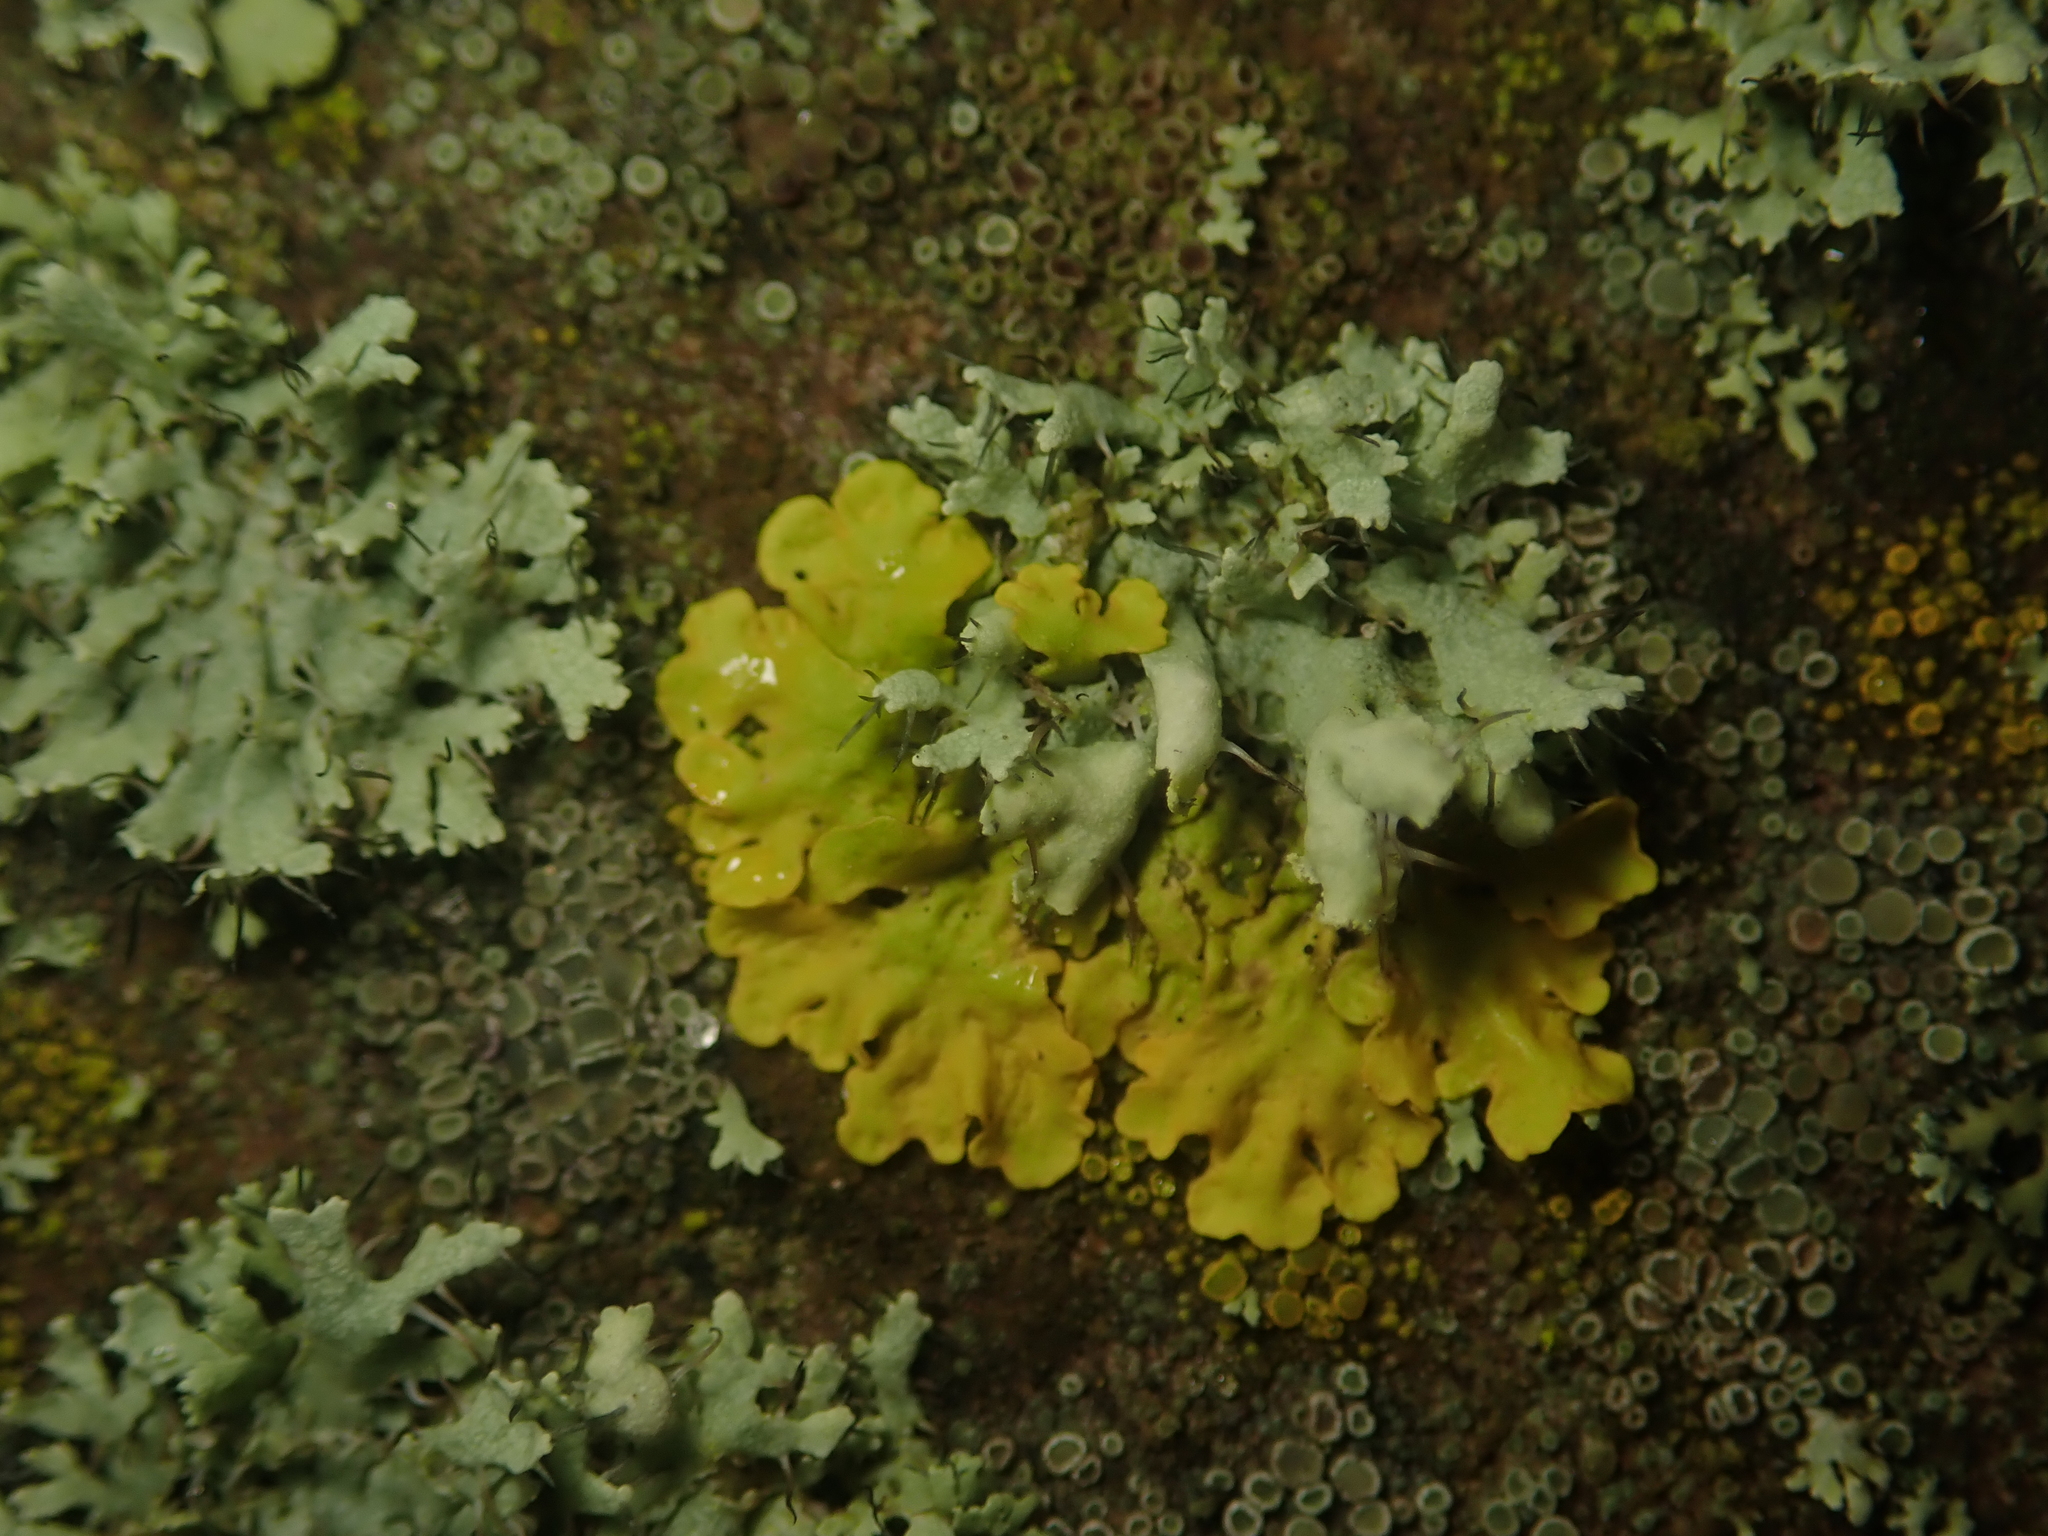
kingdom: Fungi
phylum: Ascomycota
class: Lecanoromycetes
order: Teloschistales
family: Teloschistaceae
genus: Xanthoria
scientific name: Xanthoria parietina
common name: Common orange lichen
